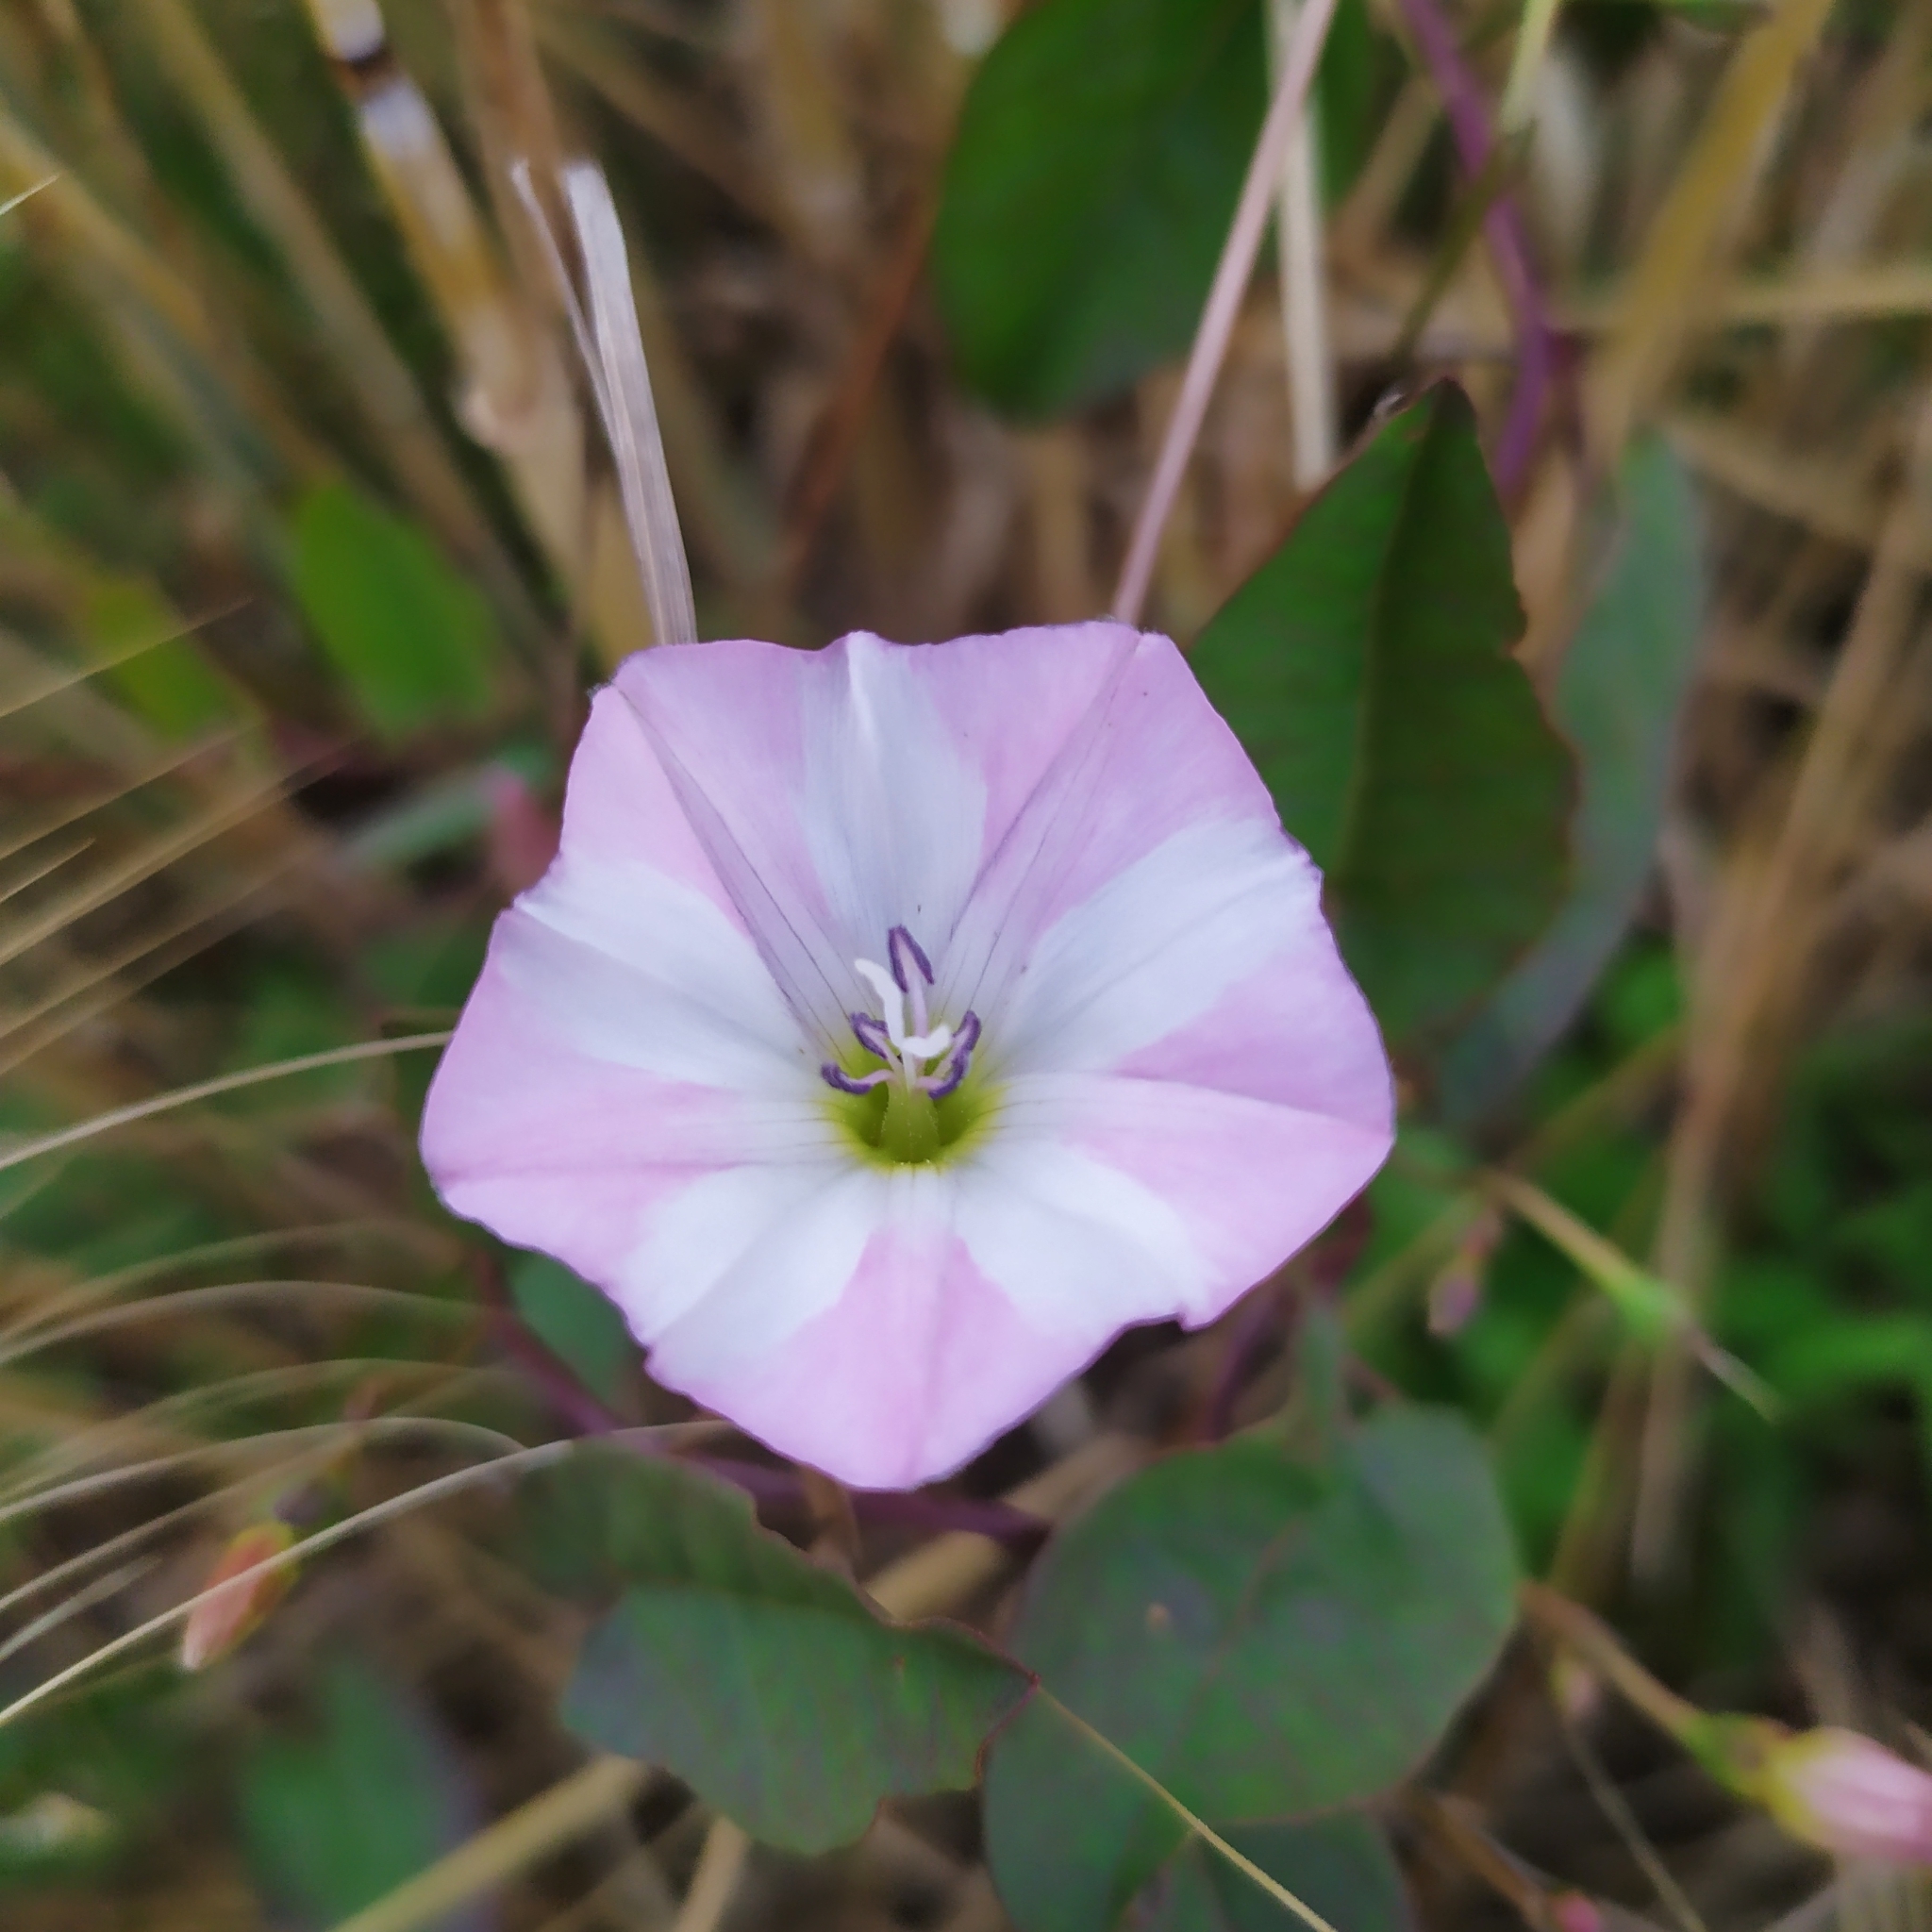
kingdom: Plantae
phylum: Tracheophyta
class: Magnoliopsida
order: Solanales
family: Convolvulaceae
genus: Convolvulus
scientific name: Convolvulus arvensis
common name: Field bindweed
